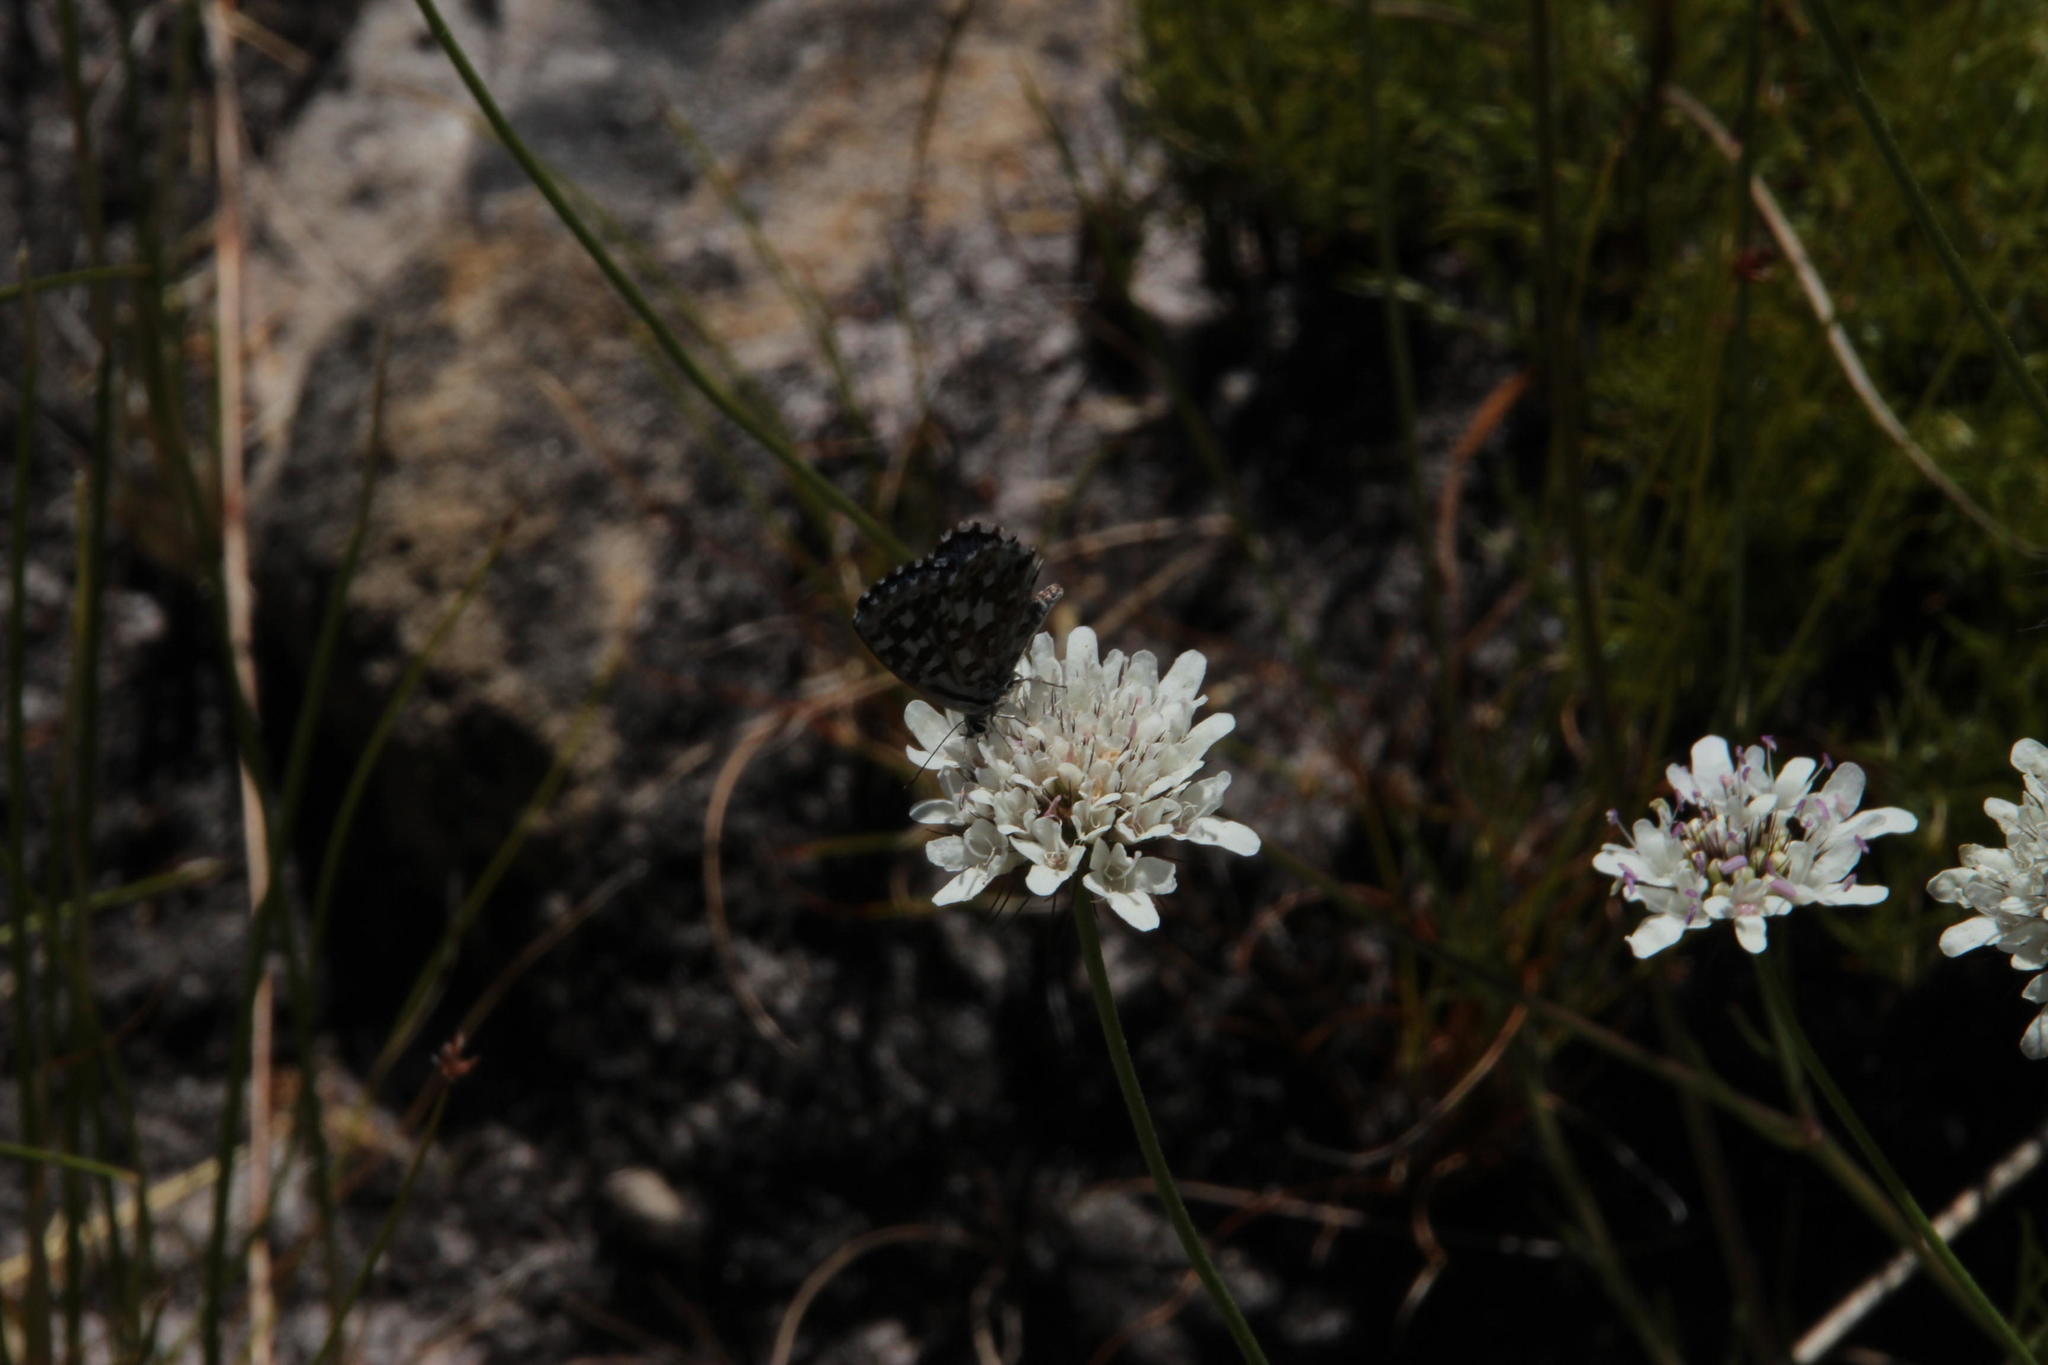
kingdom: Plantae
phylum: Tracheophyta
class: Magnoliopsida
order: Dipsacales
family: Caprifoliaceae
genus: Scabiosa
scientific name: Scabiosa columbaria
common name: Small scabious
